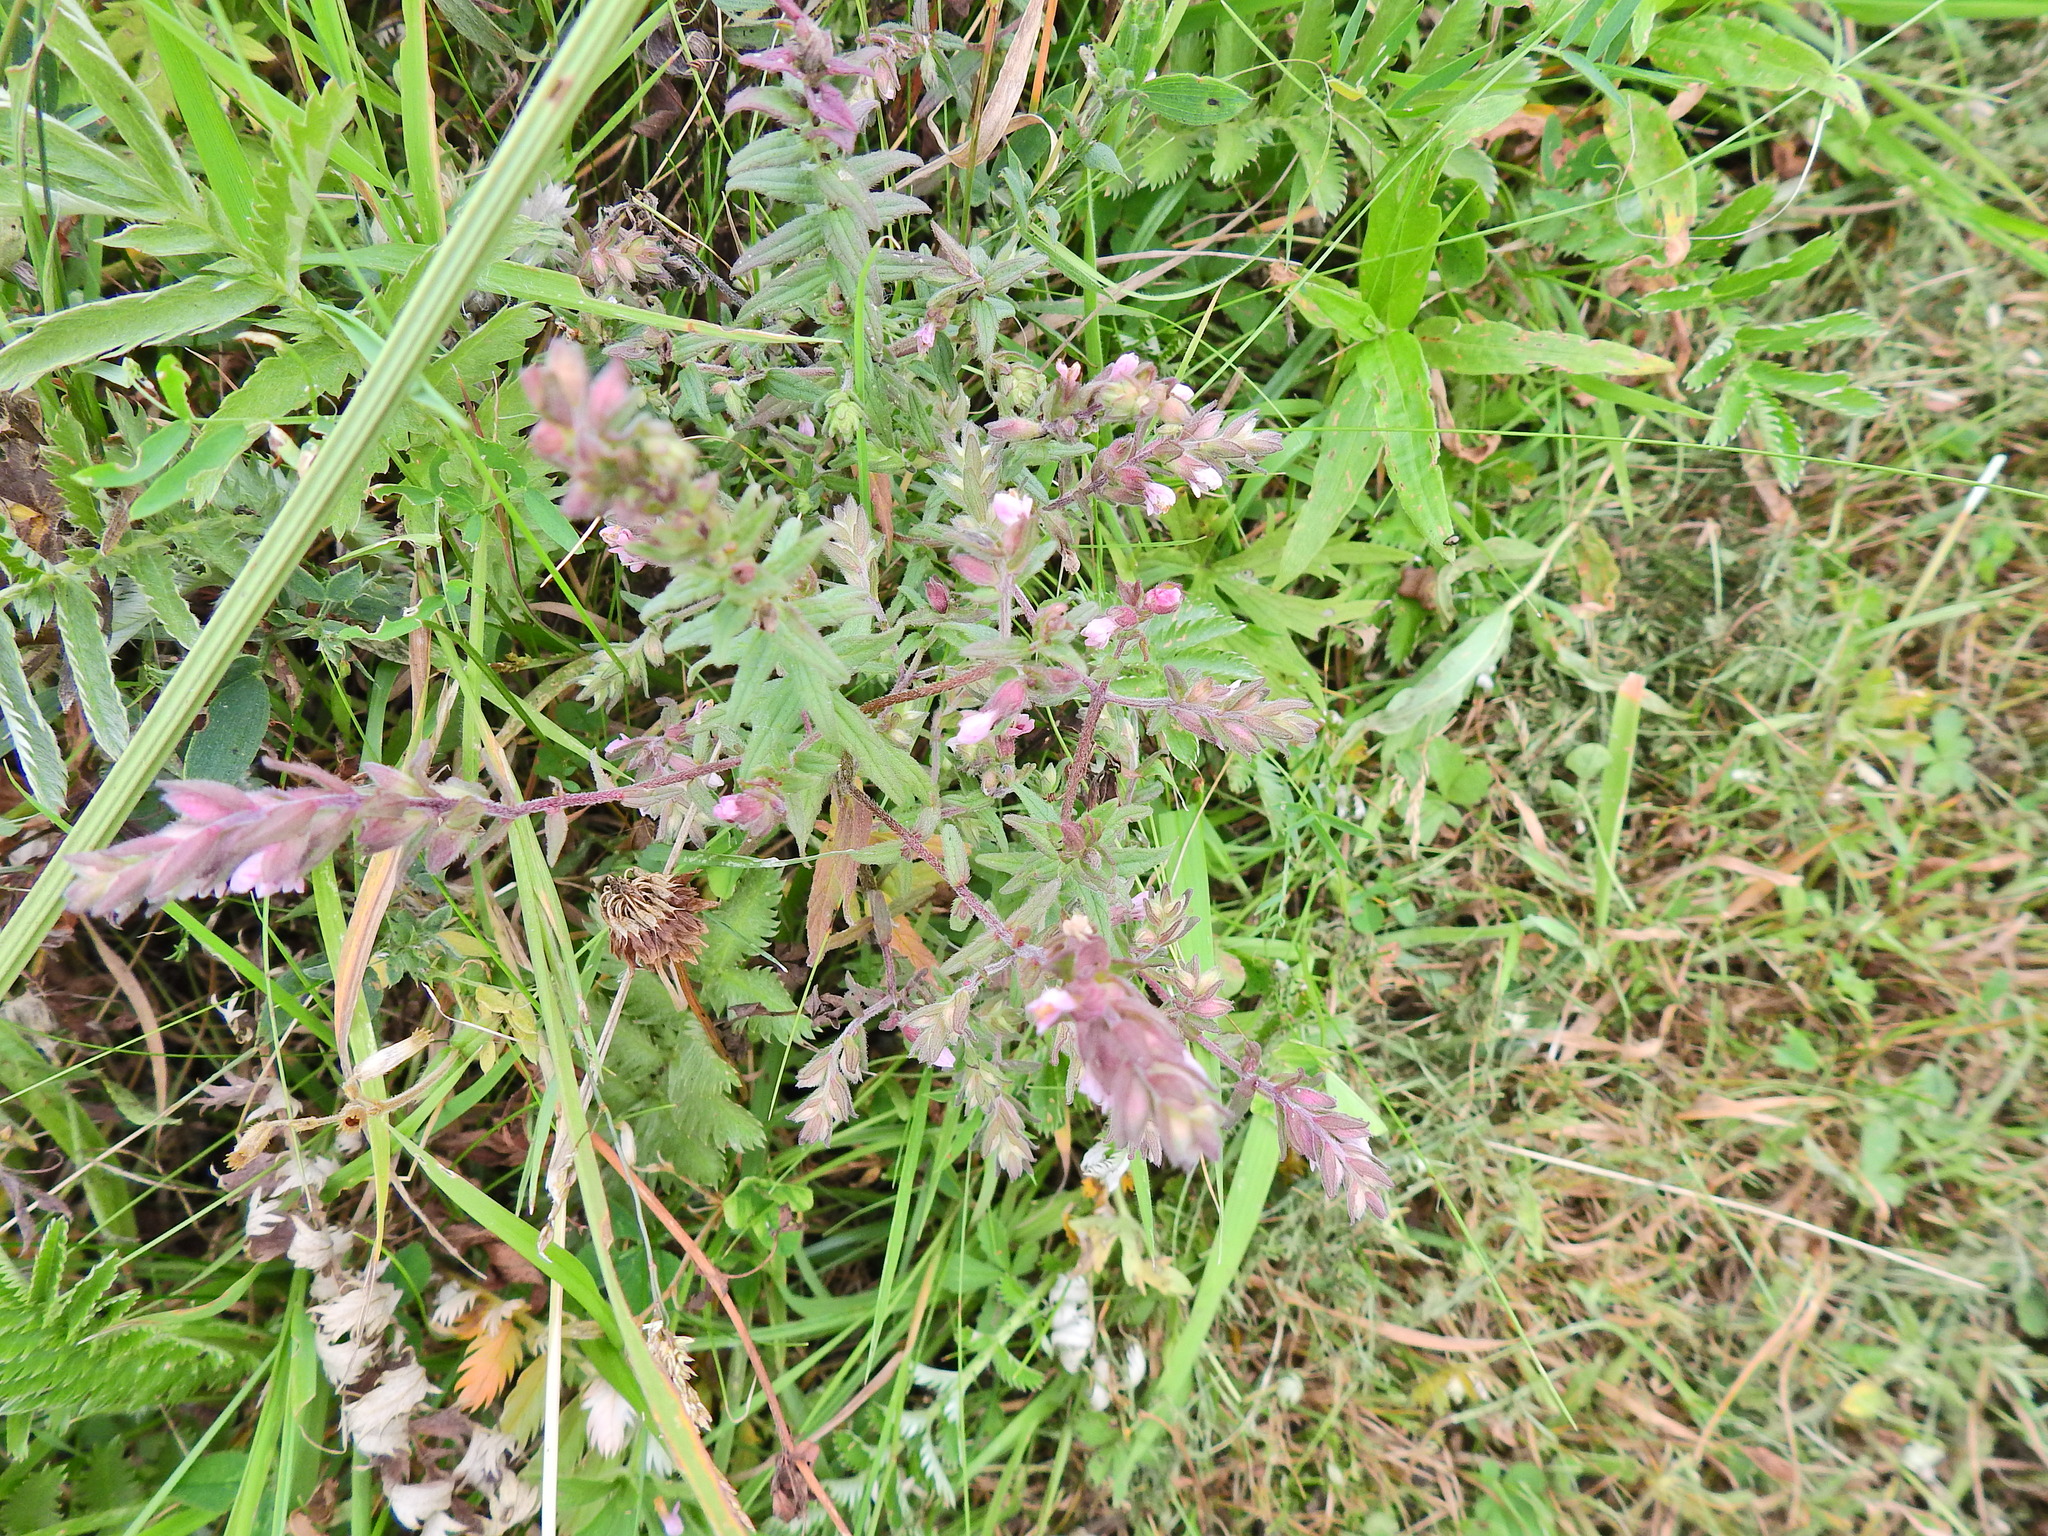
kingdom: Plantae
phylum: Tracheophyta
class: Magnoliopsida
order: Lamiales
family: Orobanchaceae
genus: Odontites
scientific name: Odontites vernus
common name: Red bartsia
